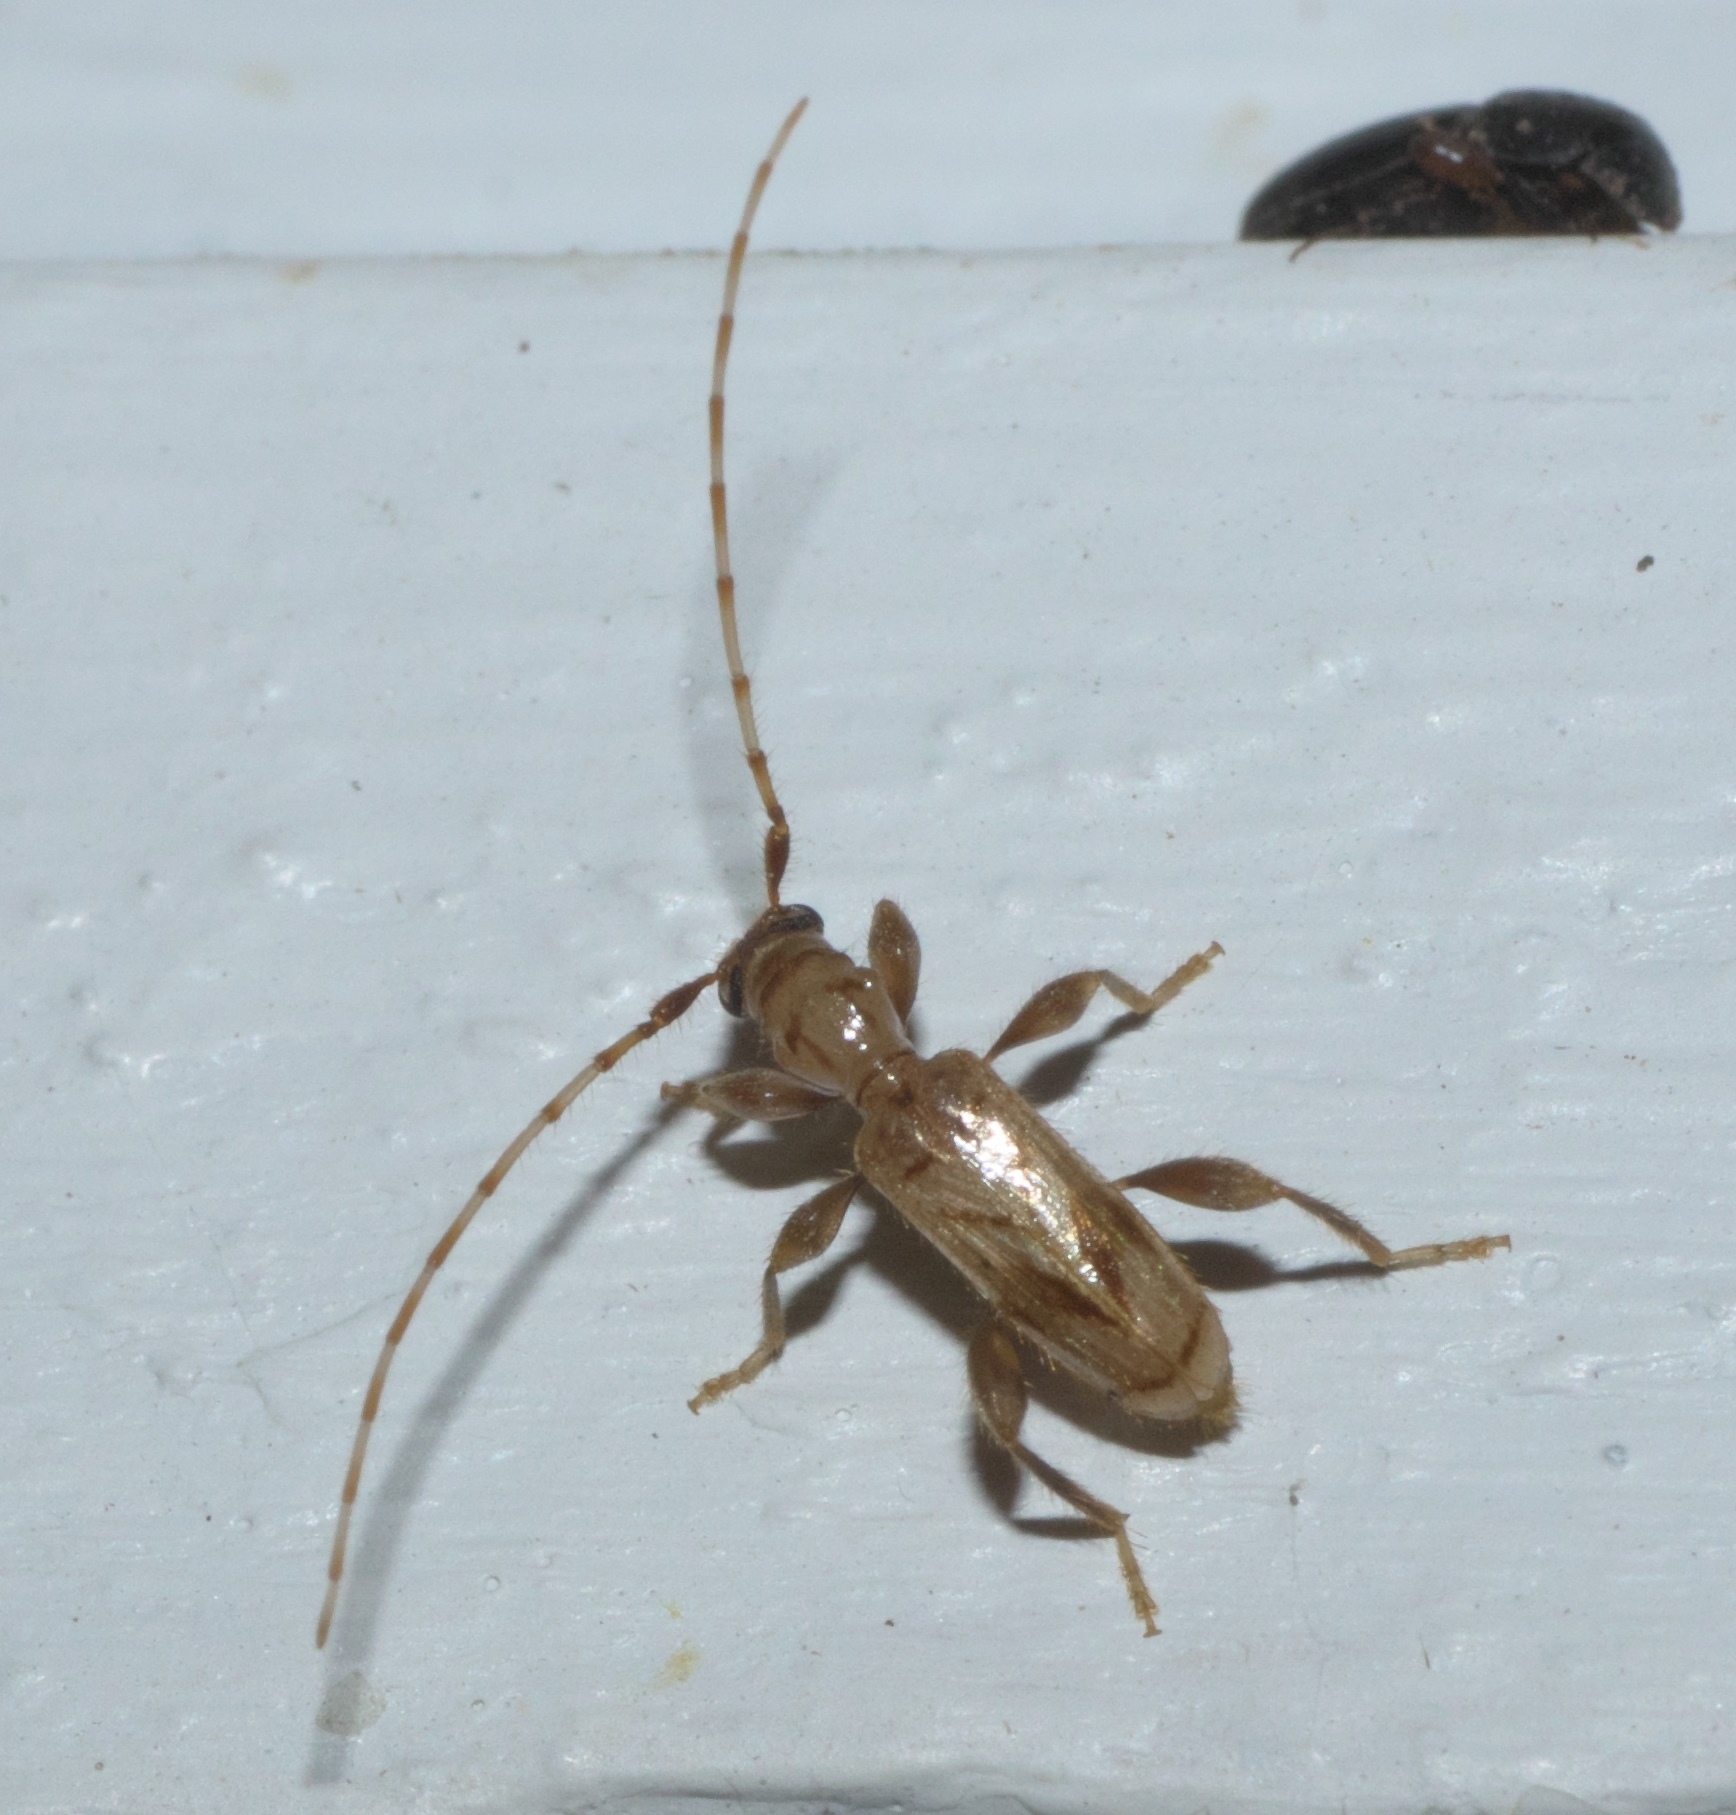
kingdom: Animalia
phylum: Arthropoda
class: Insecta
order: Coleoptera
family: Cerambycidae
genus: Obrium
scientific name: Obrium maculatum
